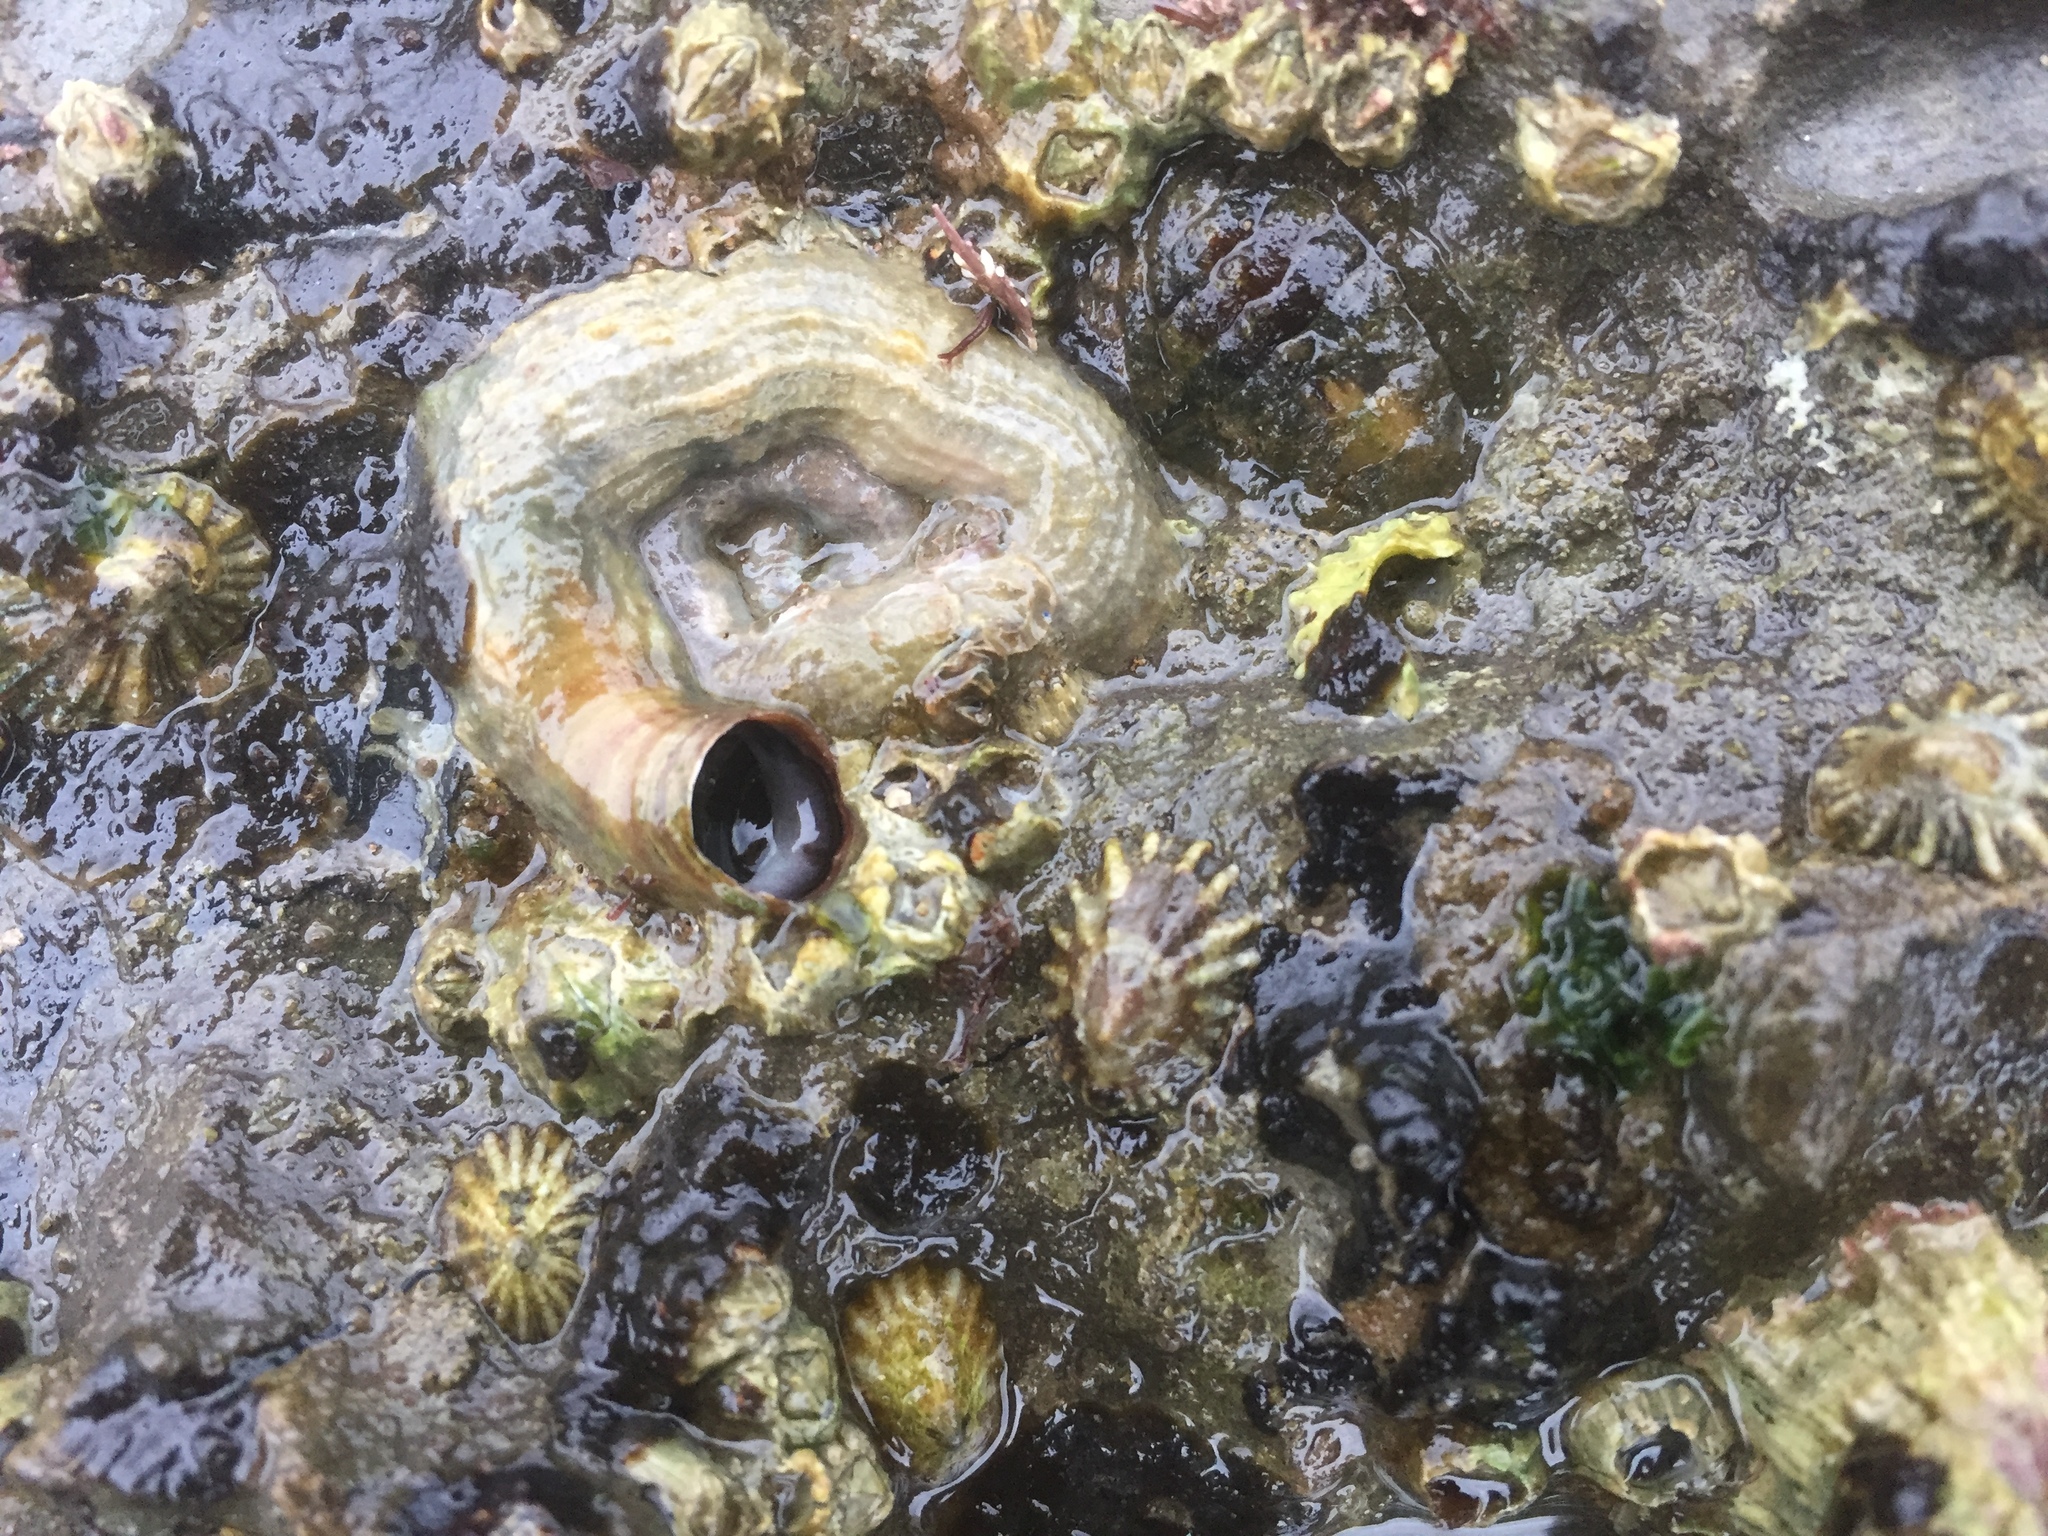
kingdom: Animalia
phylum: Mollusca
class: Gastropoda
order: Littorinimorpha
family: Vermetidae
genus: Thylacodes
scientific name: Thylacodes squamigerus
